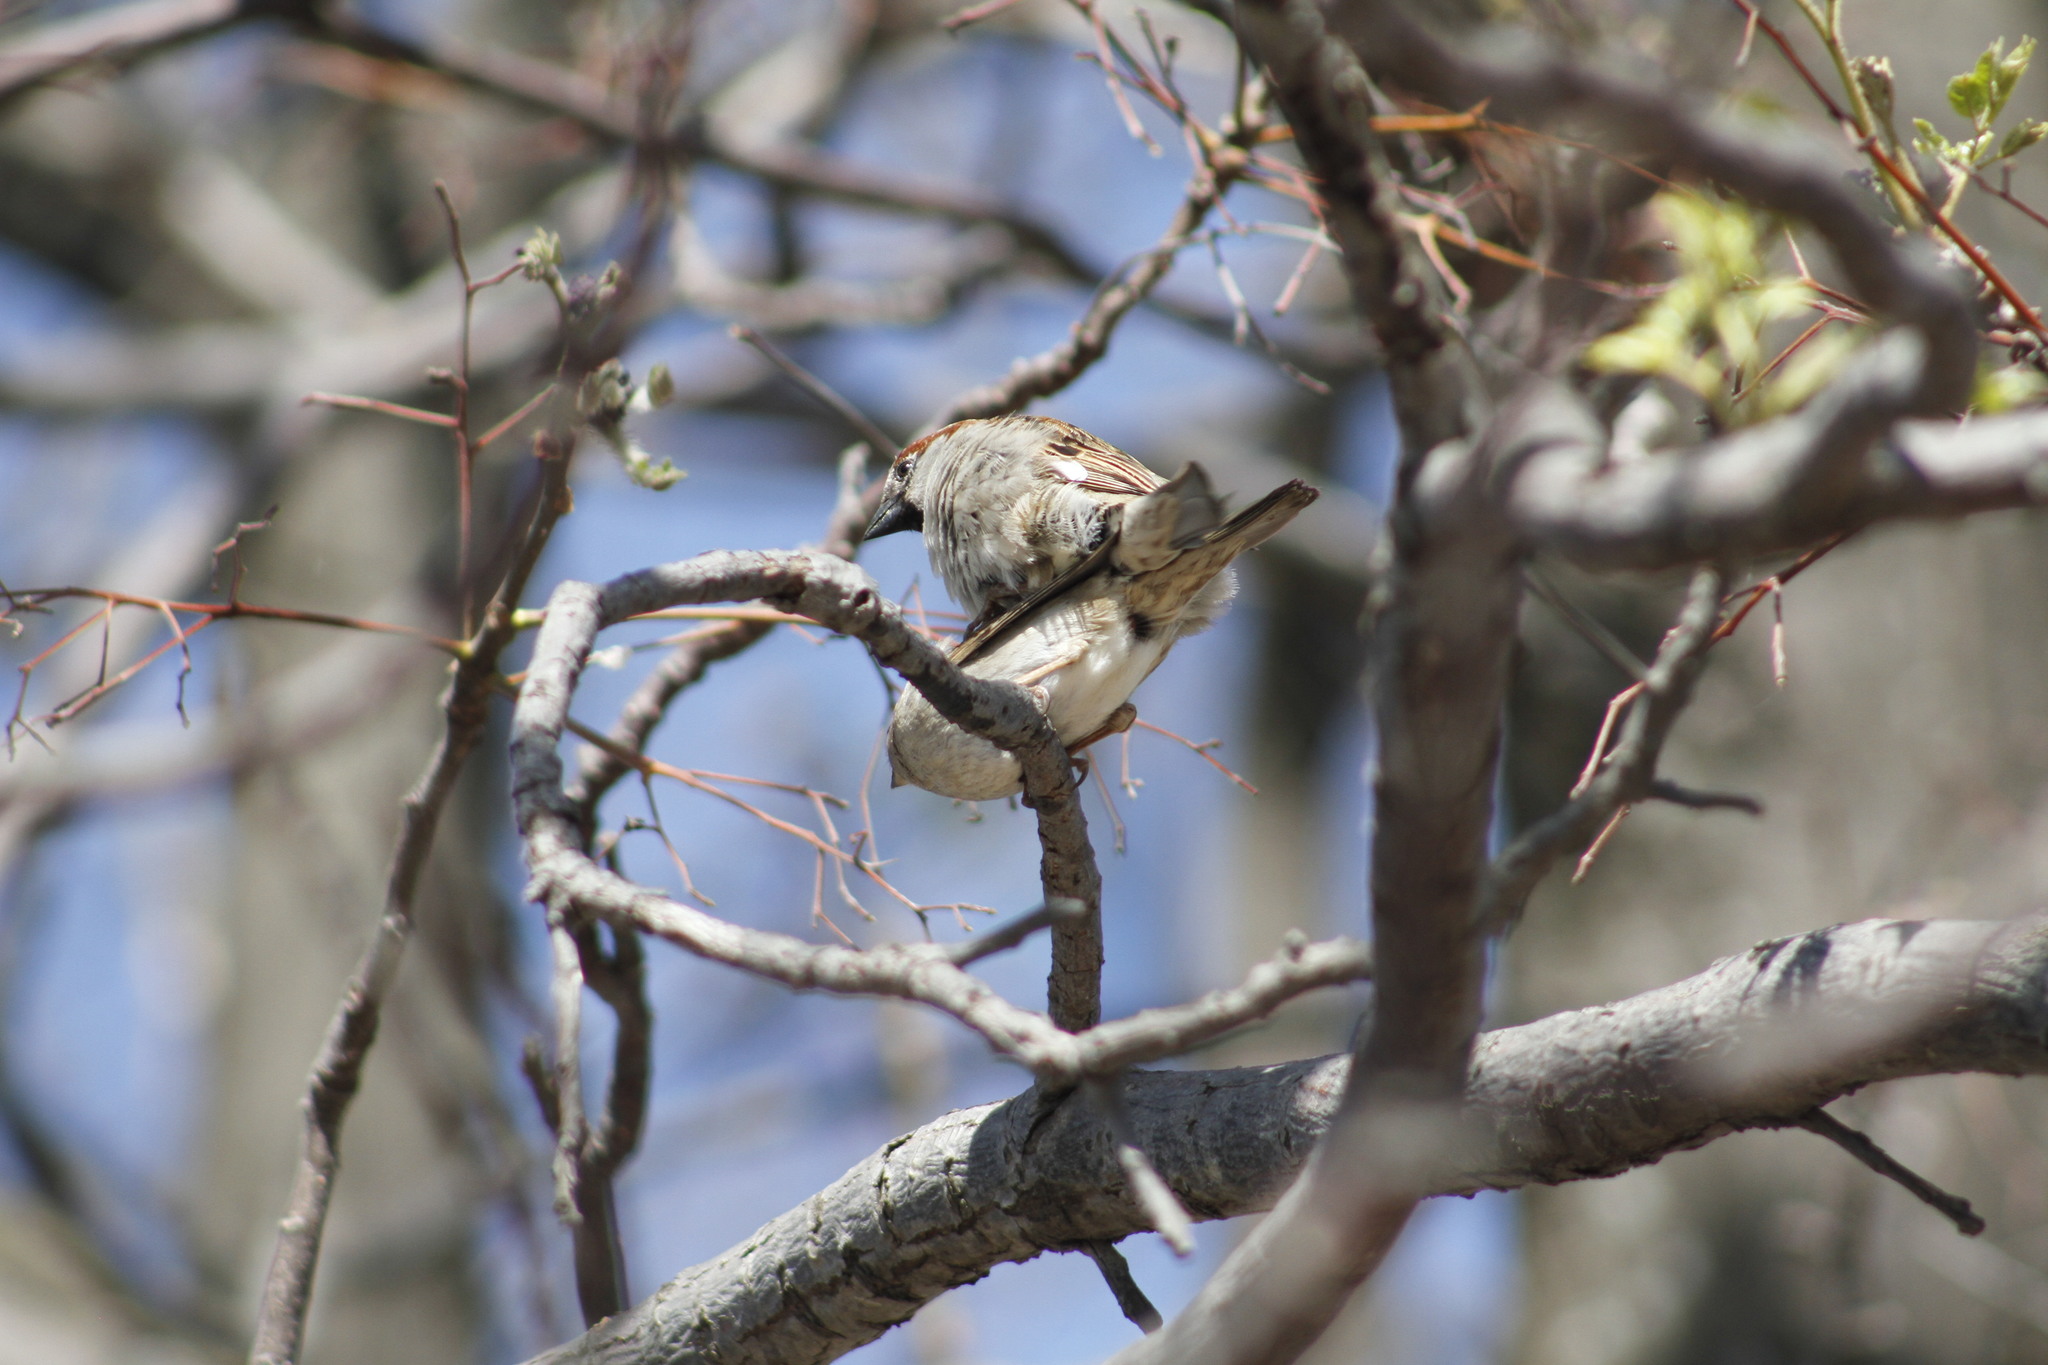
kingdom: Animalia
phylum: Chordata
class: Aves
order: Passeriformes
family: Passeridae
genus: Passer
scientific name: Passer domesticus
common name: House sparrow
